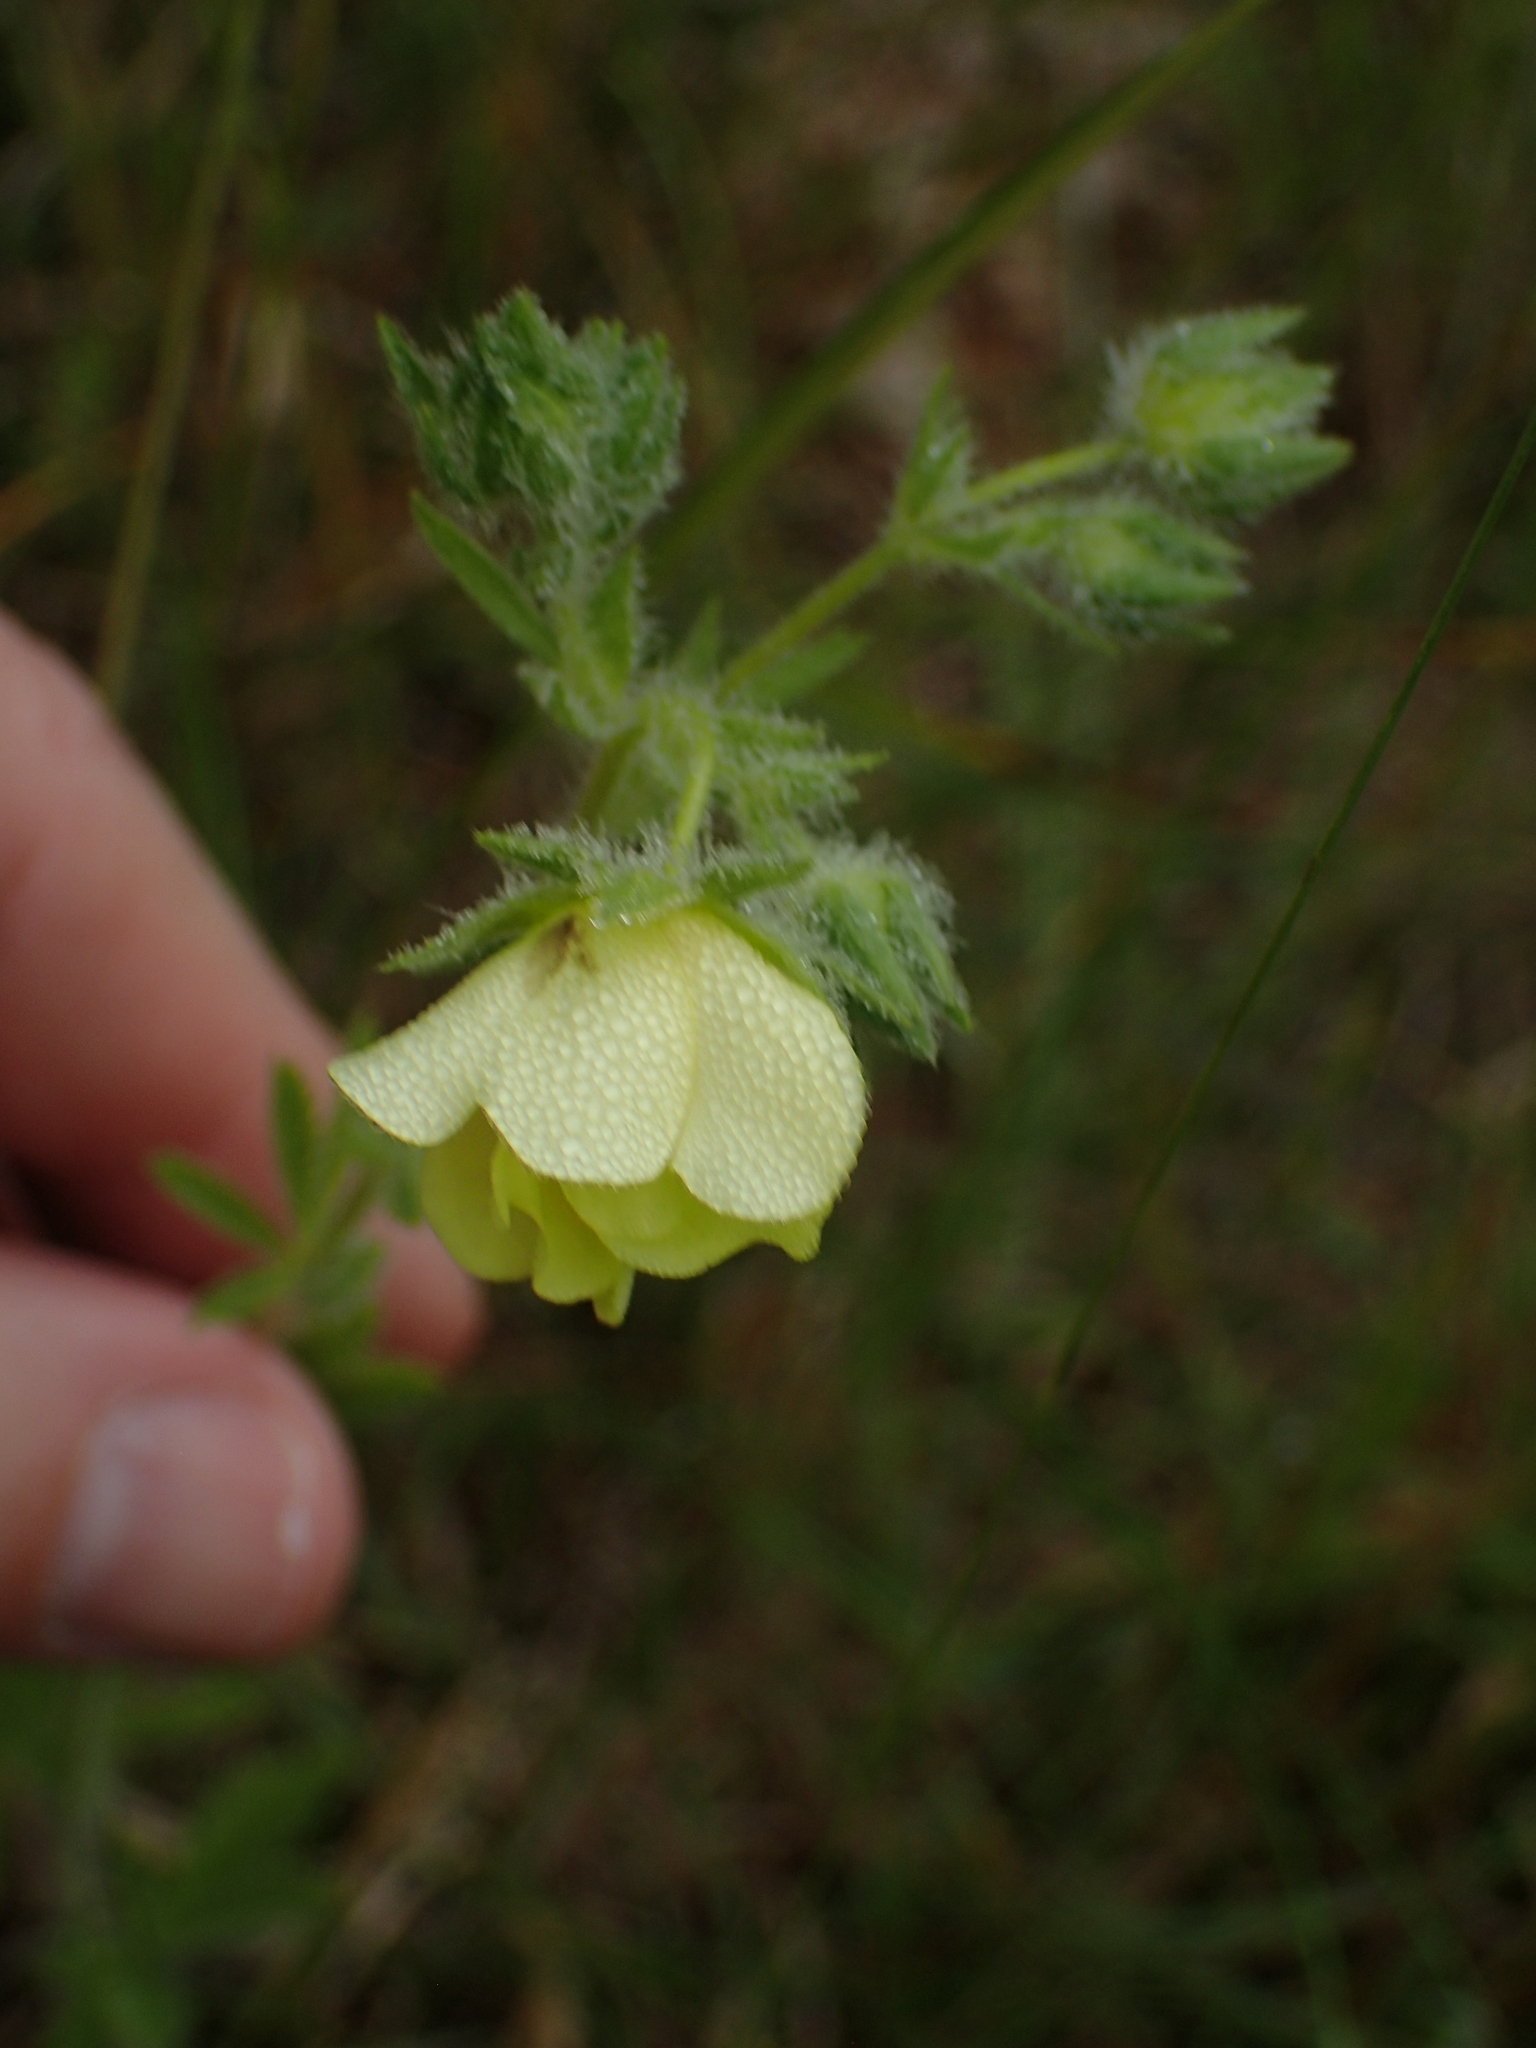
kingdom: Plantae
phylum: Tracheophyta
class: Magnoliopsida
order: Rosales
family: Rosaceae
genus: Potentilla
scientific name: Potentilla recta
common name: Sulphur cinquefoil
